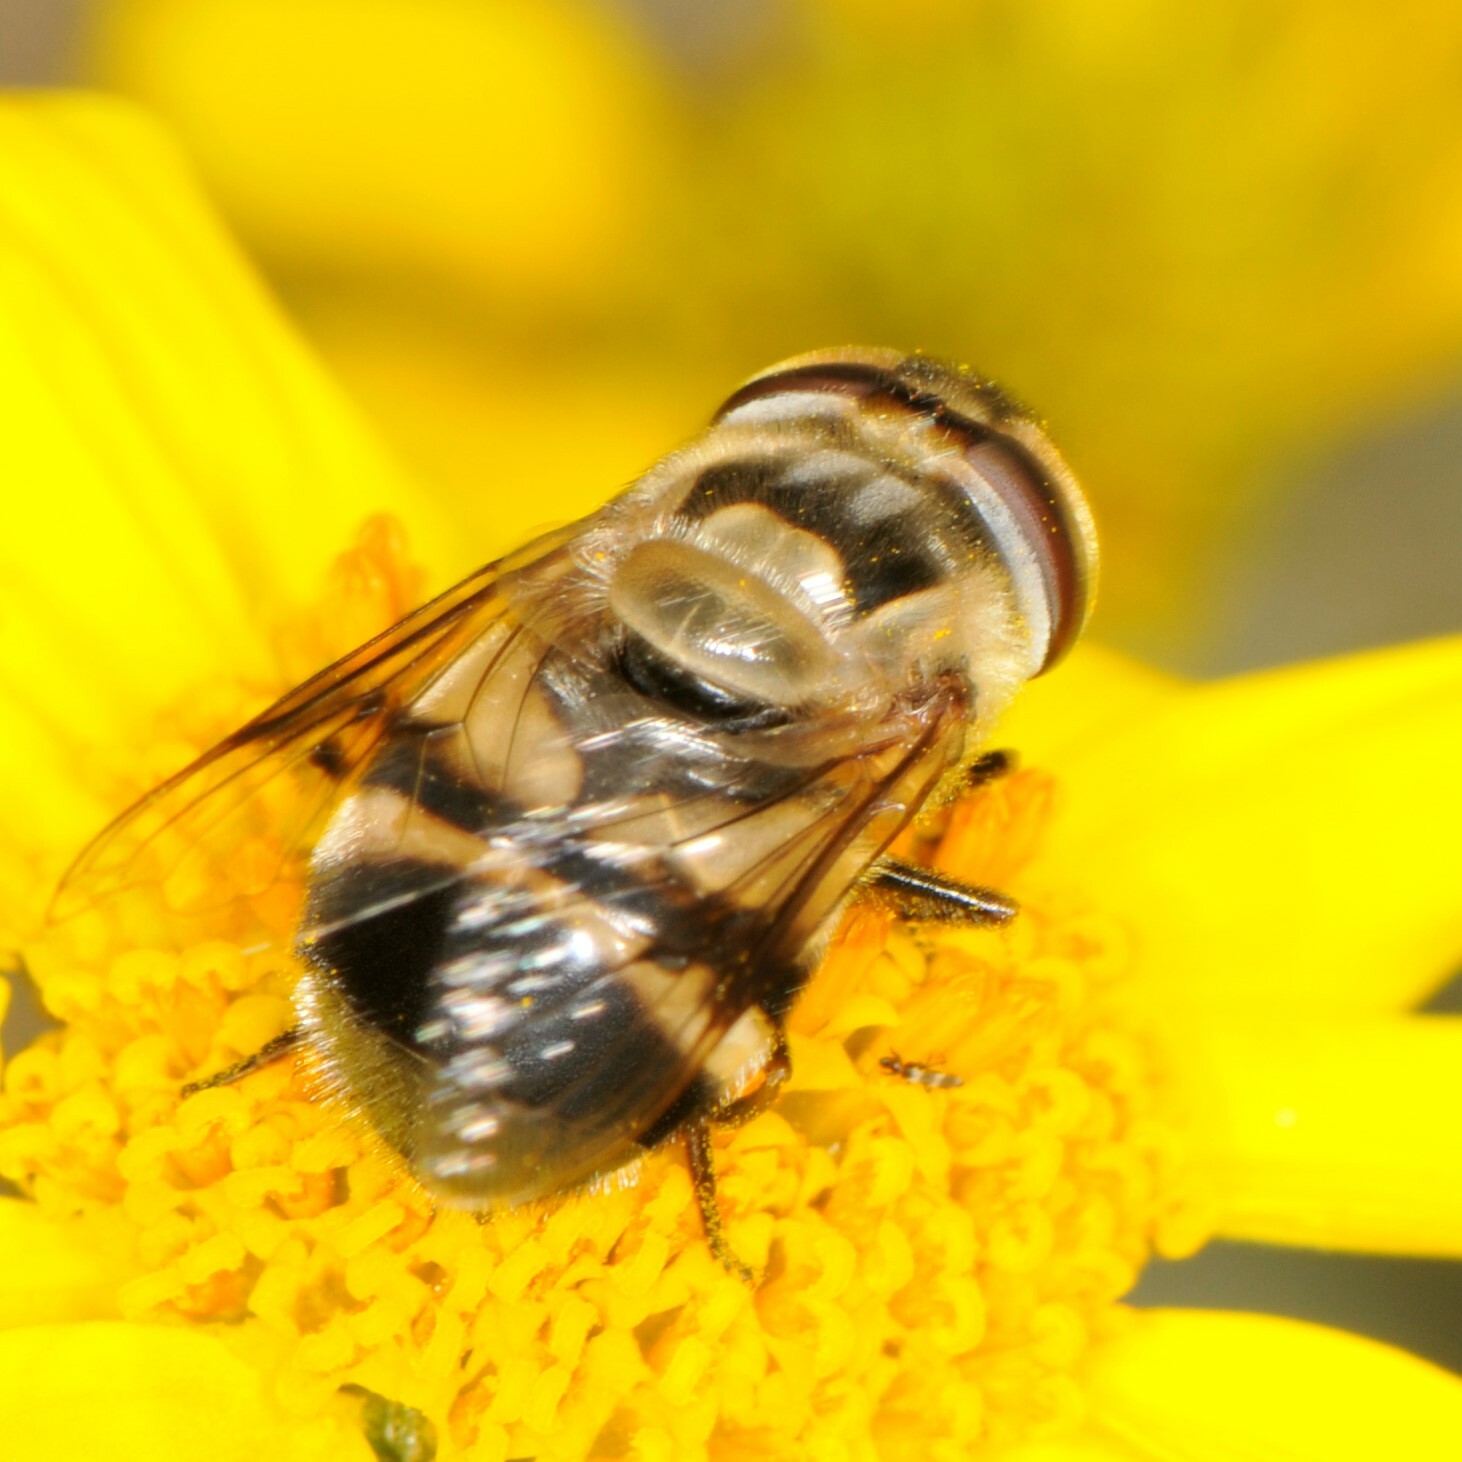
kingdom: Animalia
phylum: Arthropoda
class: Insecta
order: Diptera
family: Syrphidae
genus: Copestylum
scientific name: Copestylum apiciferum
